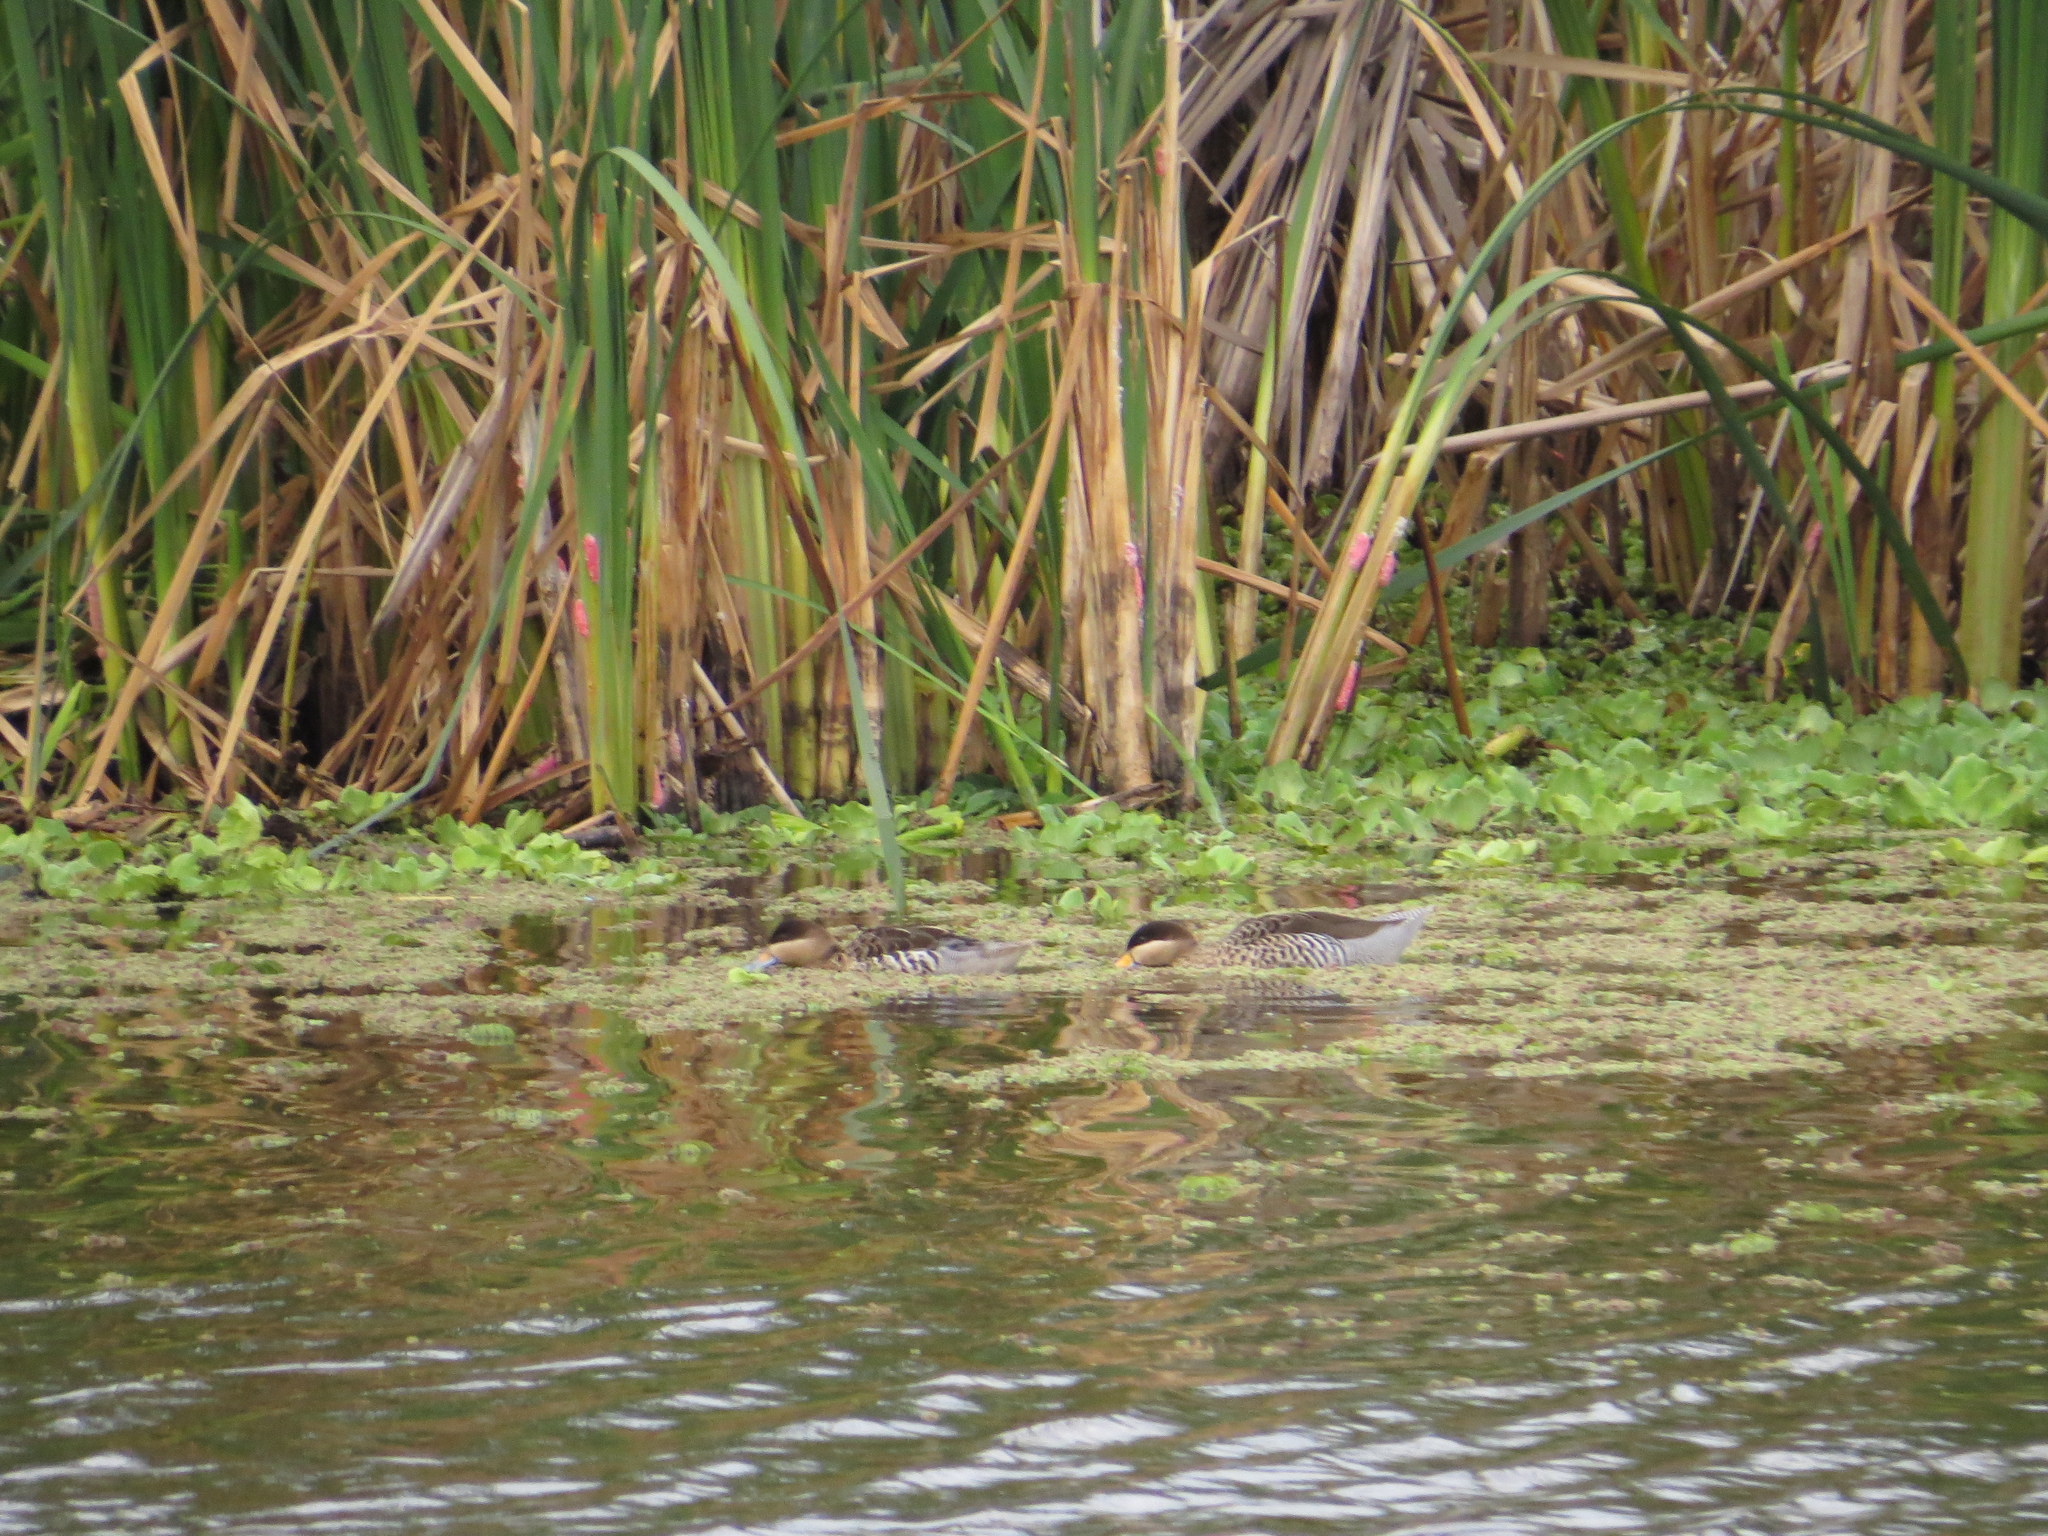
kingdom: Animalia
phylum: Chordata
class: Aves
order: Anseriformes
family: Anatidae
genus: Spatula
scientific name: Spatula versicolor
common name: Silver teal
